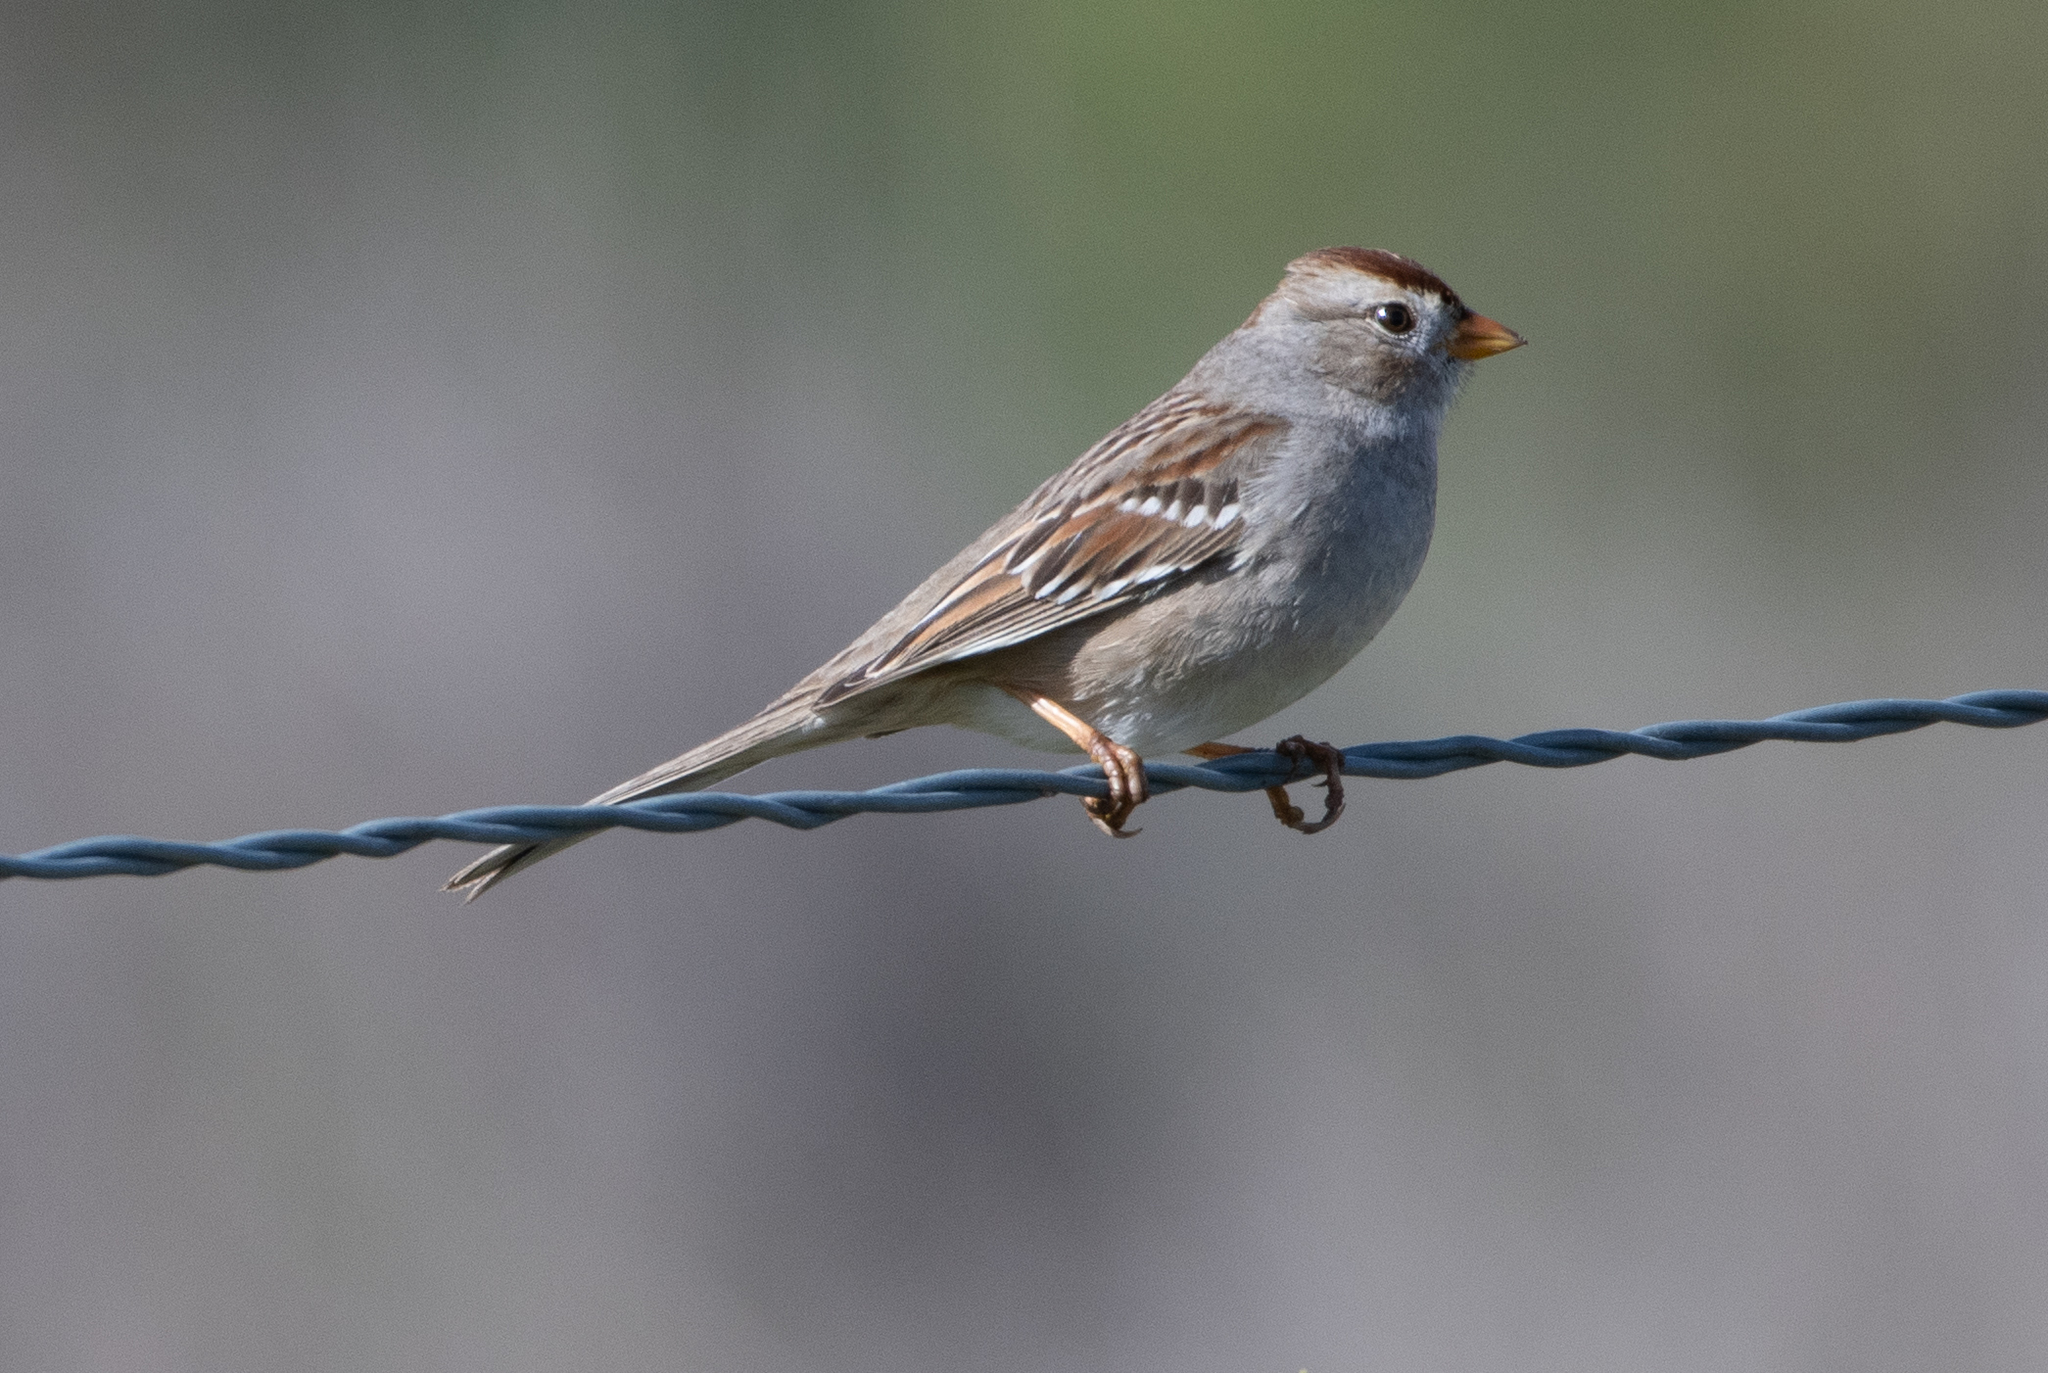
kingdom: Animalia
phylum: Chordata
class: Aves
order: Passeriformes
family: Passerellidae
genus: Zonotrichia
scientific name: Zonotrichia leucophrys
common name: White-crowned sparrow
